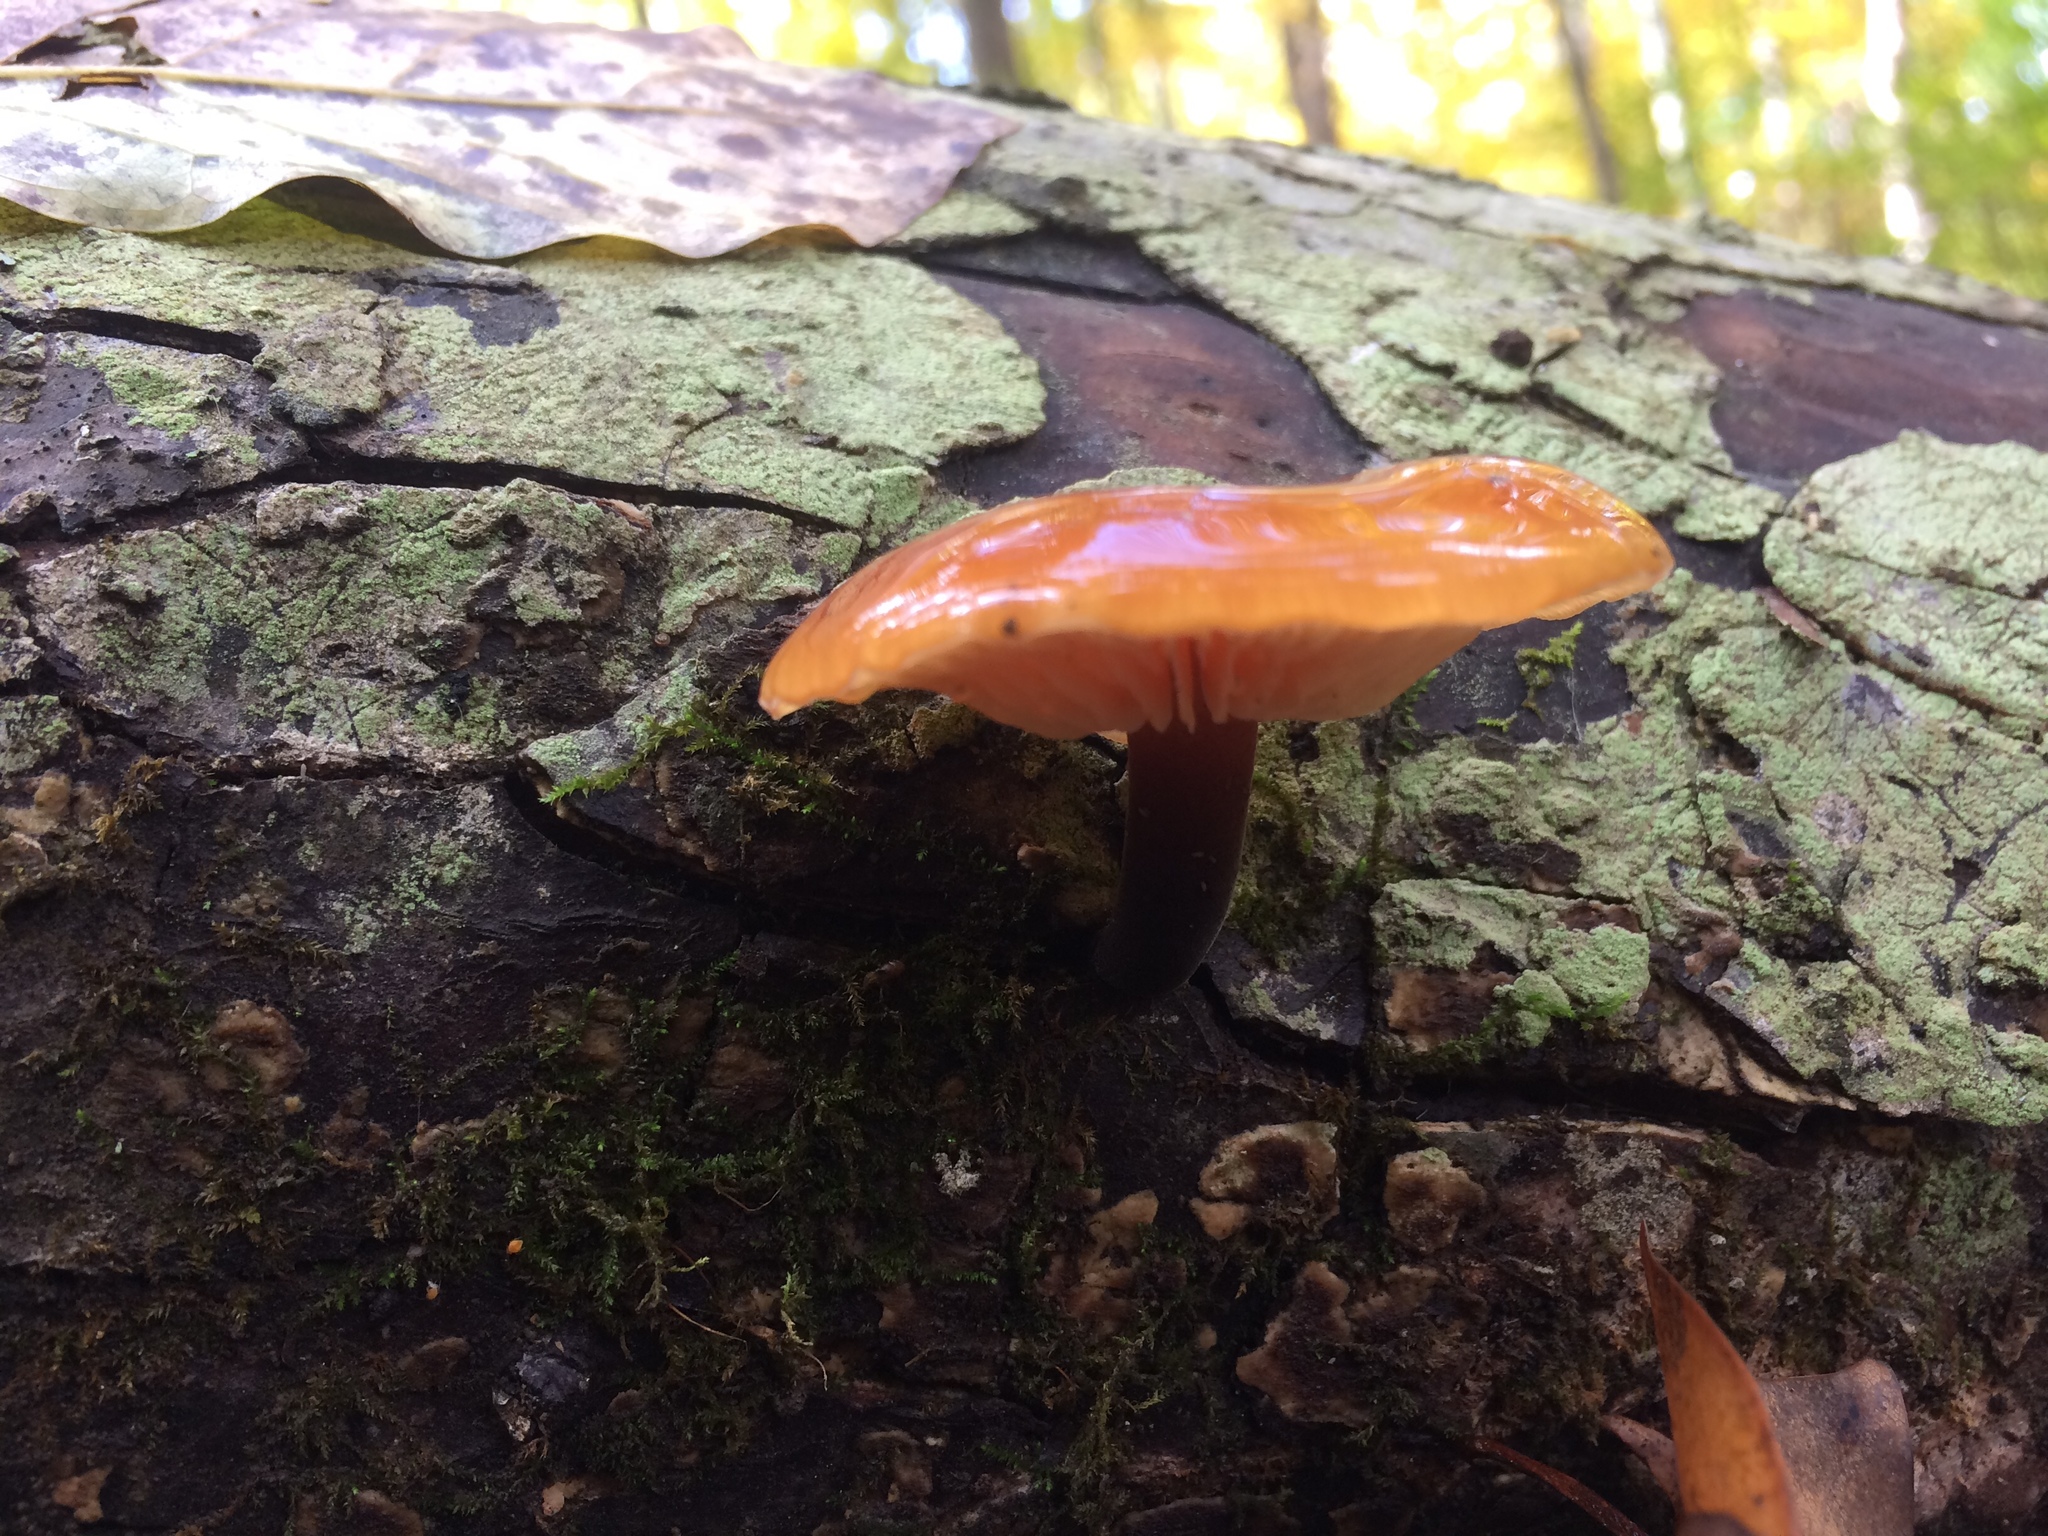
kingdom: Fungi
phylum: Basidiomycota
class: Agaricomycetes
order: Agaricales
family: Physalacriaceae
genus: Flammulina
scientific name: Flammulina velutipes
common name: Velvet shank
